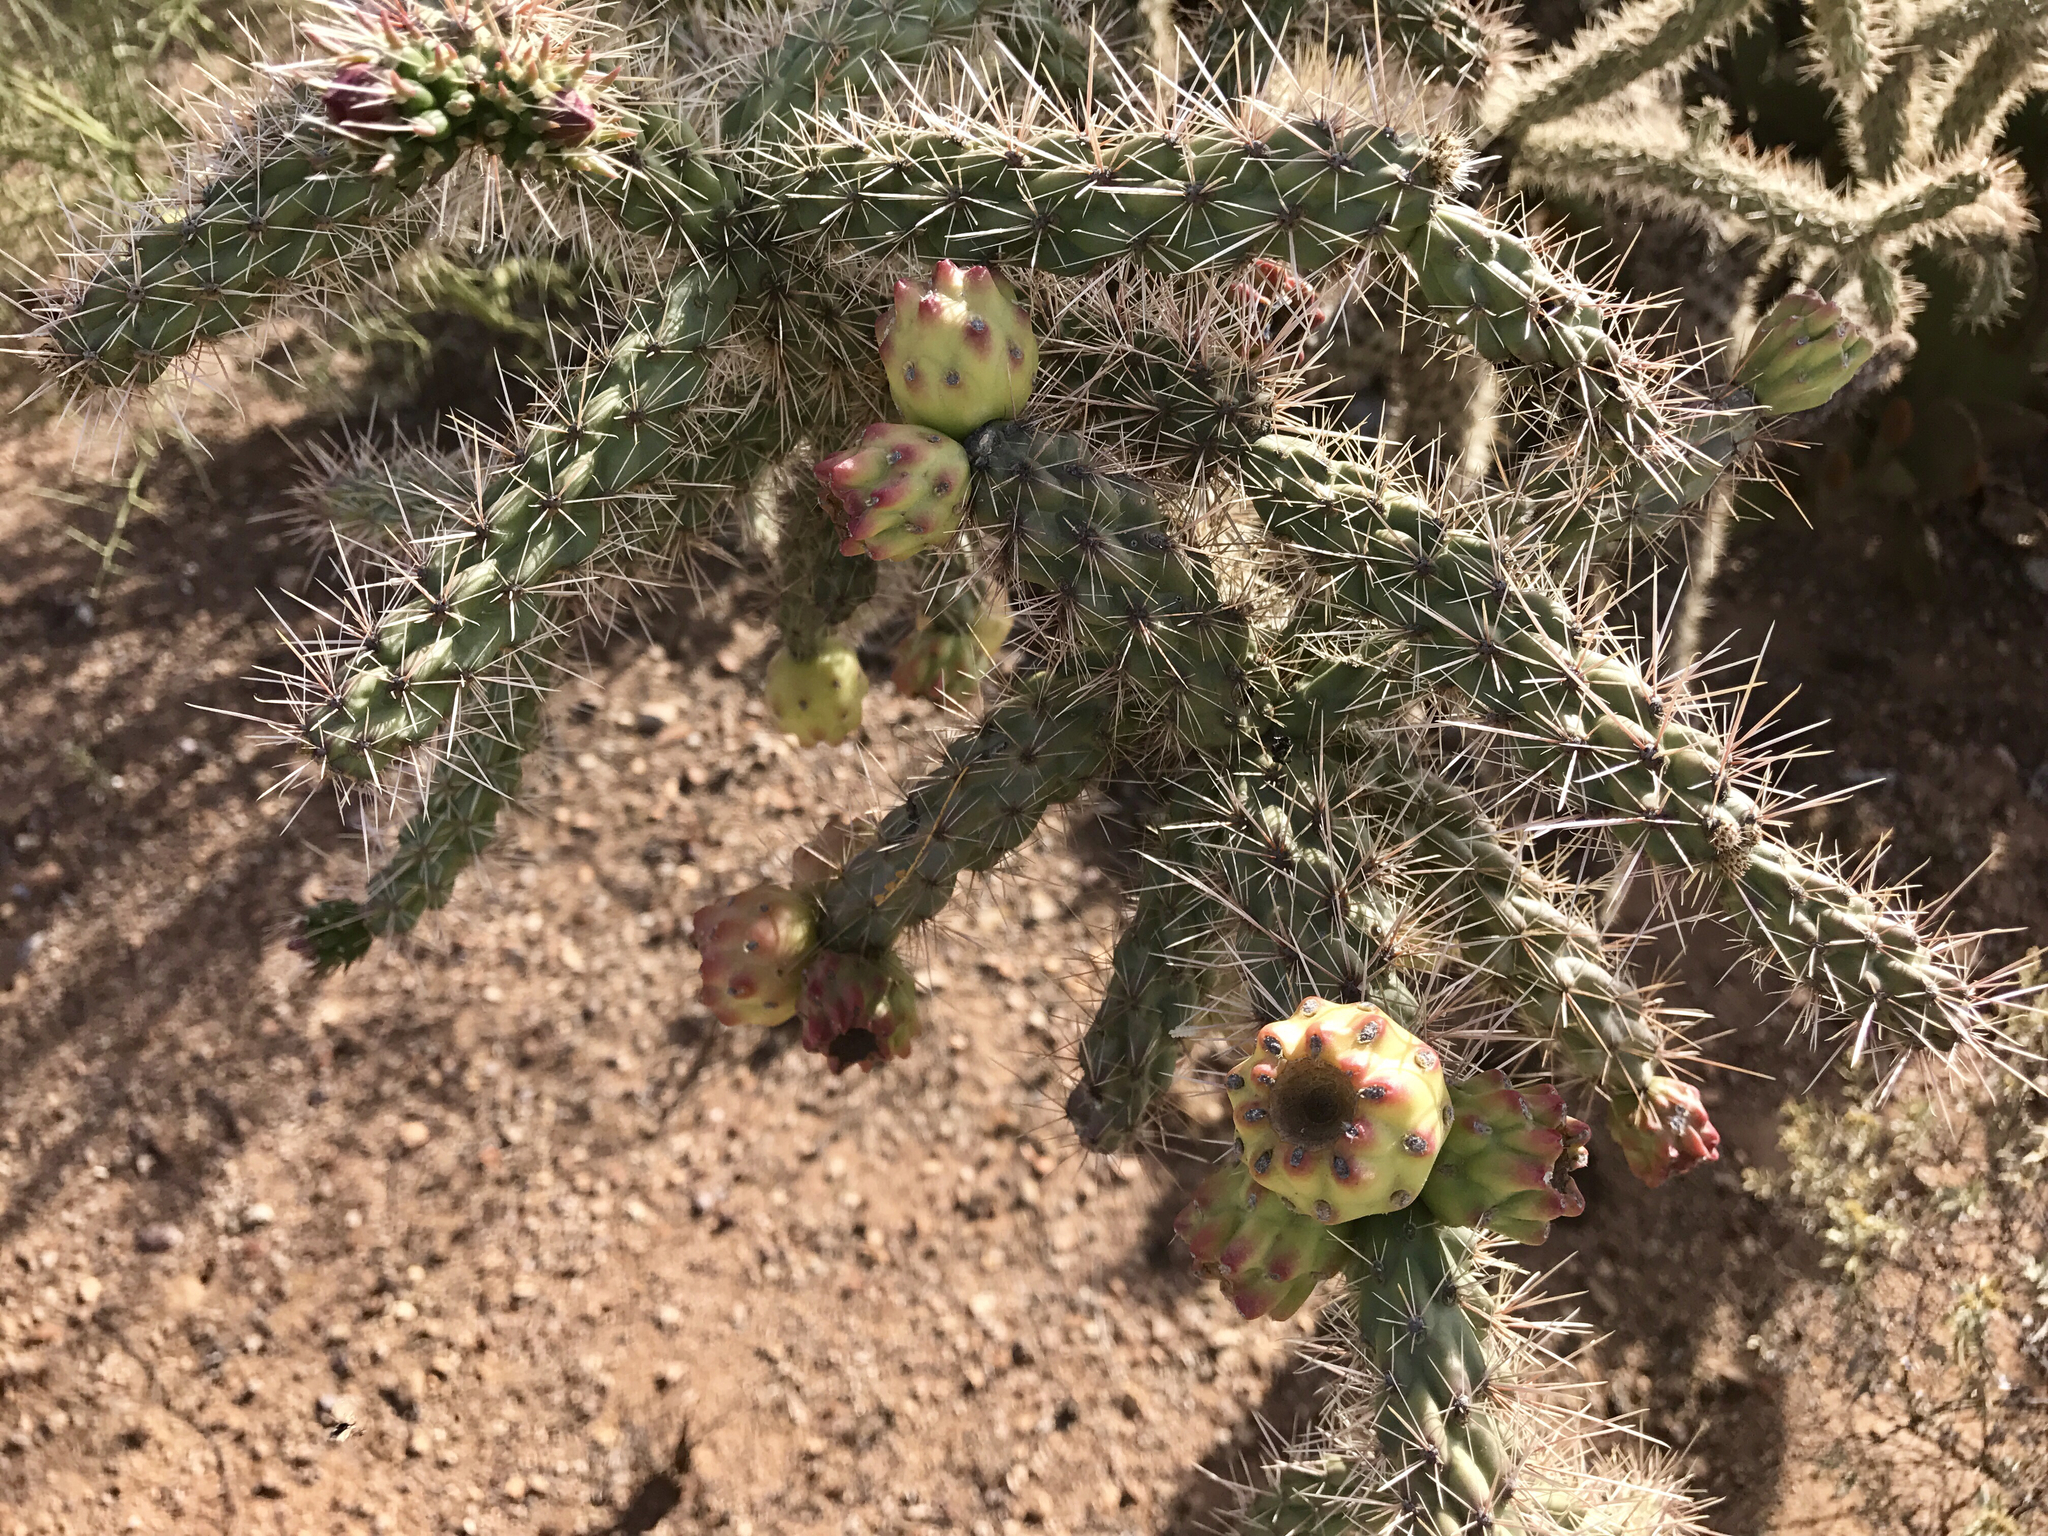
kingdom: Plantae
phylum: Tracheophyta
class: Magnoliopsida
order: Caryophyllales
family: Cactaceae
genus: Cylindropuntia
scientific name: Cylindropuntia thurberi
